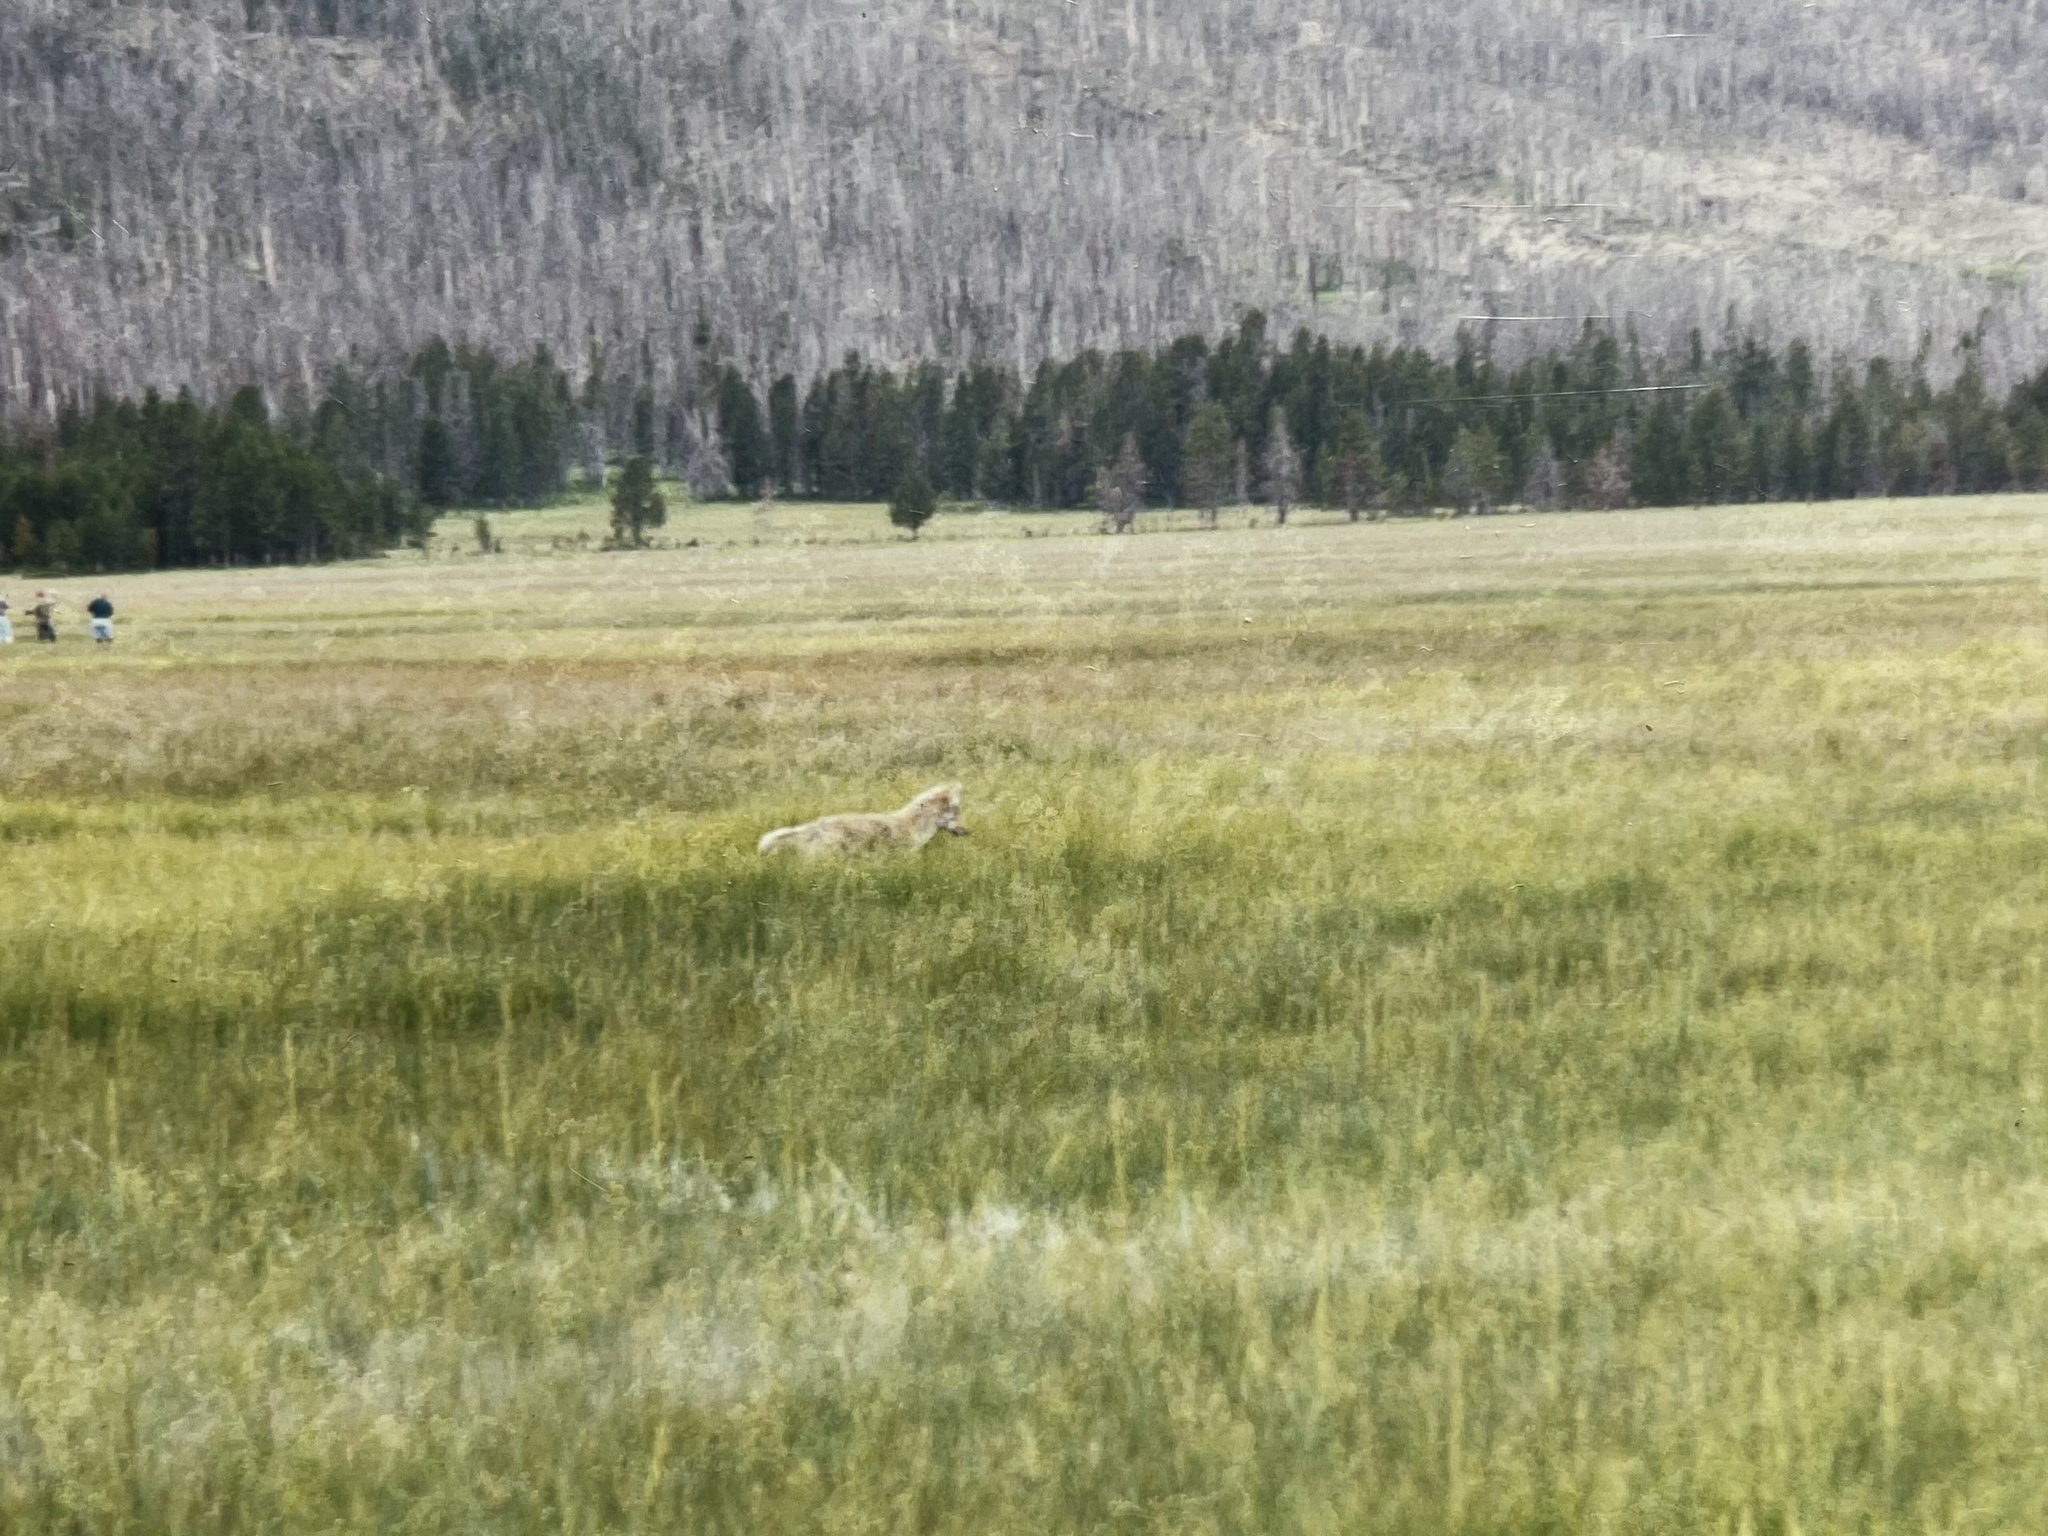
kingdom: Animalia
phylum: Chordata
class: Mammalia
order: Carnivora
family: Canidae
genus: Canis
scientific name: Canis latrans
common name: Coyote
